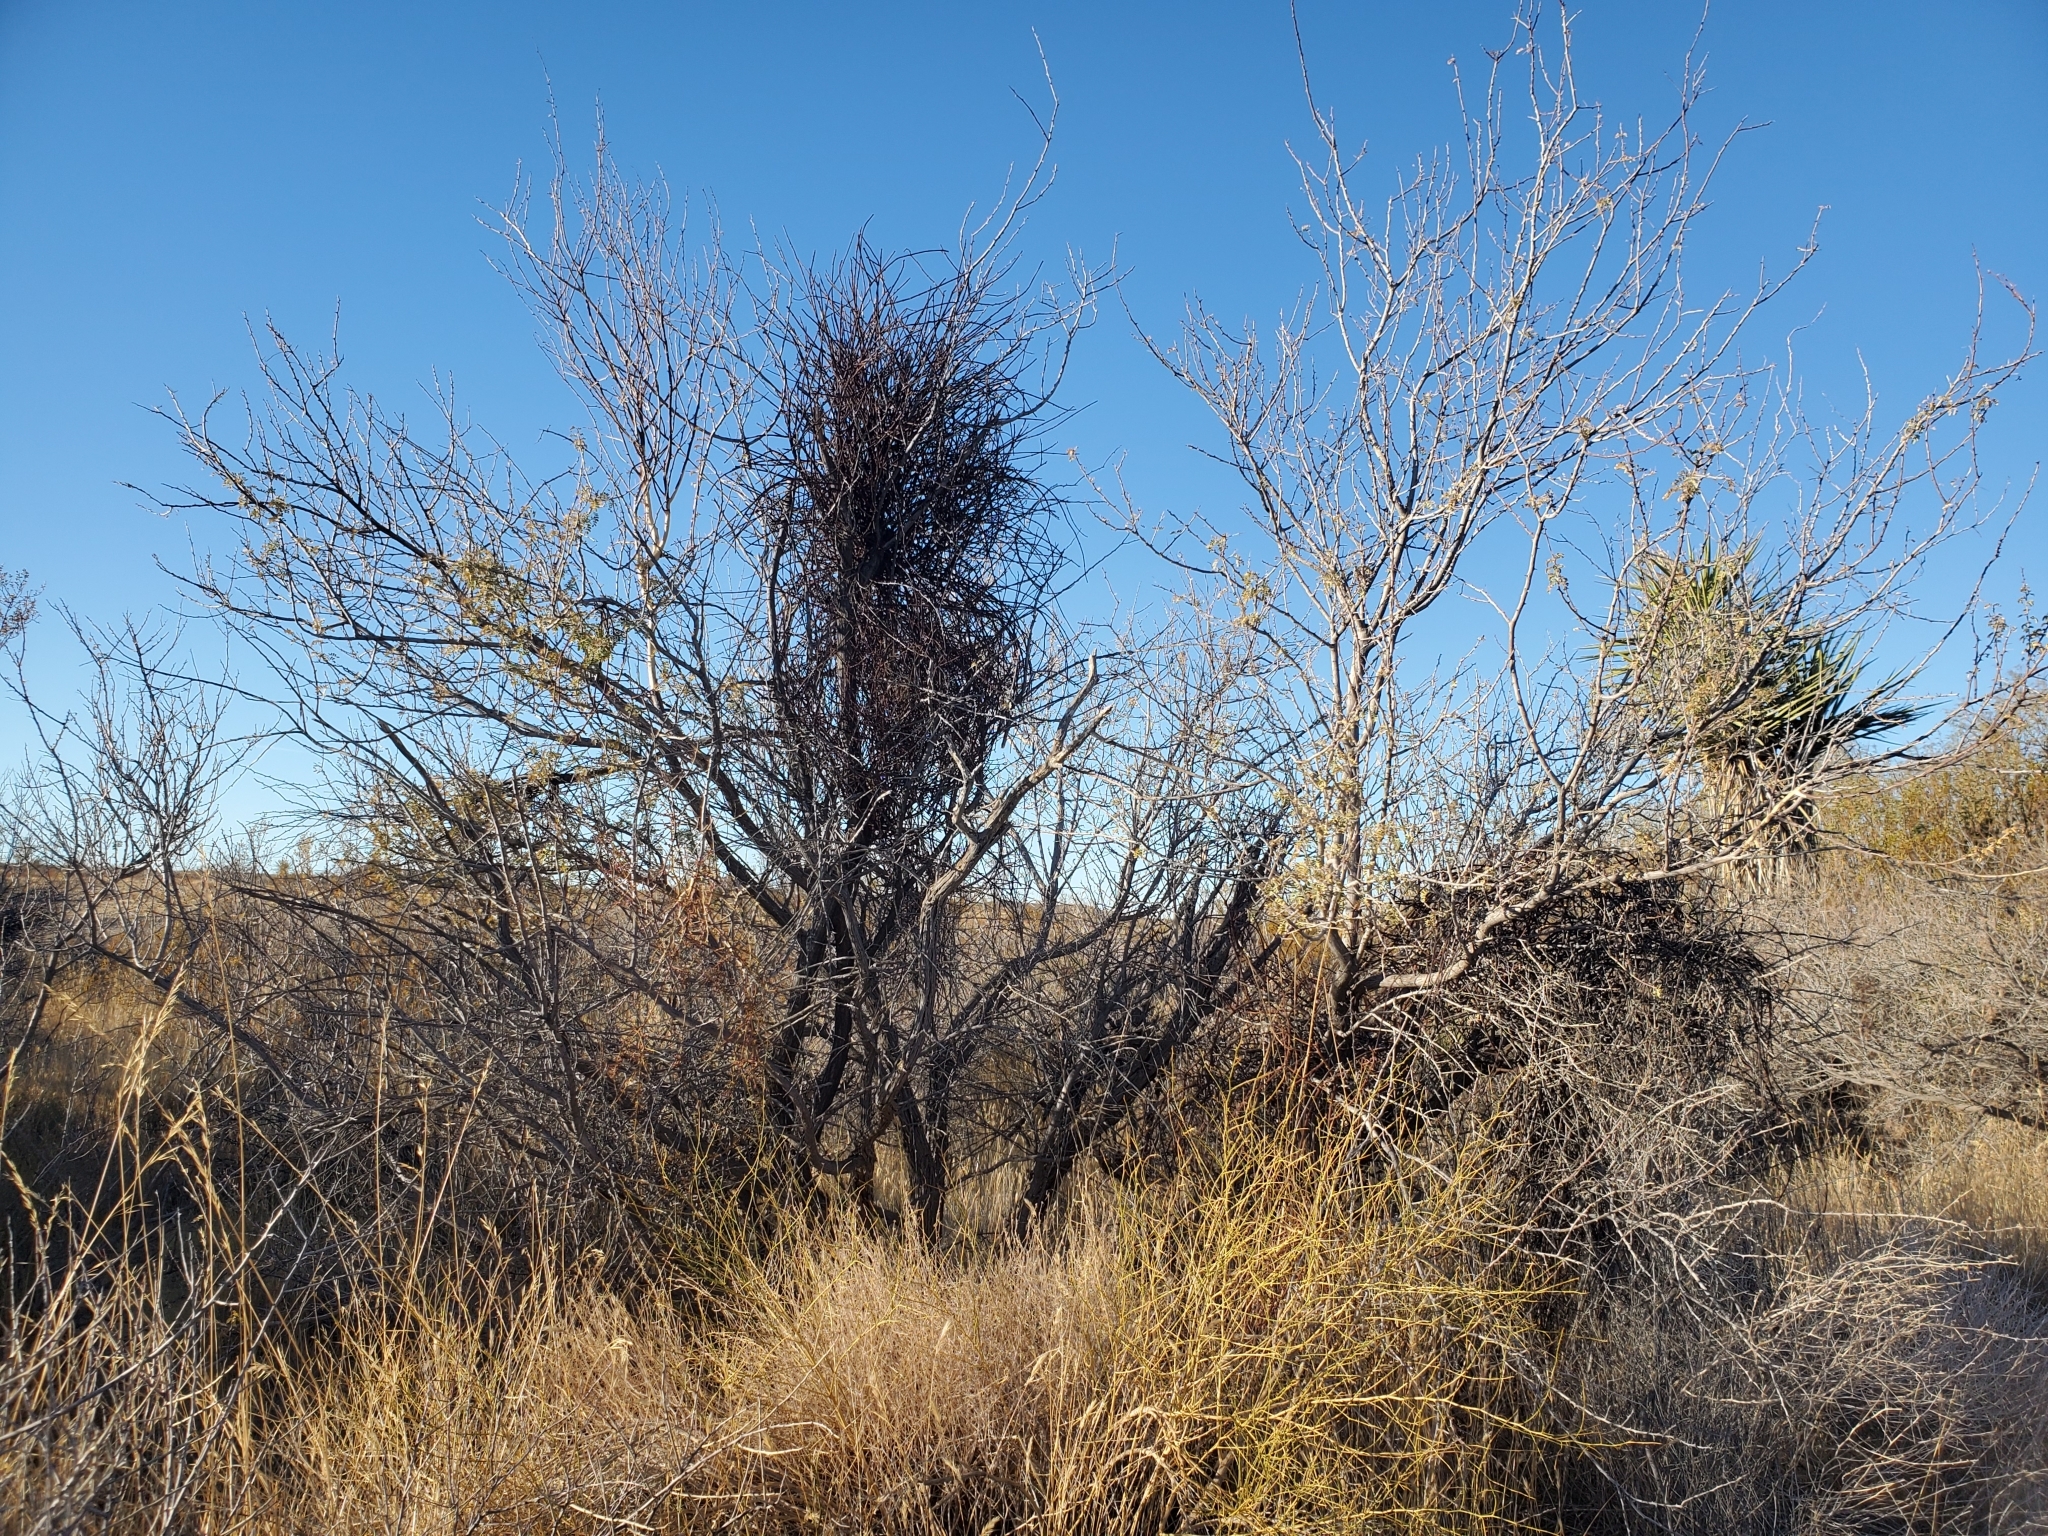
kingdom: Plantae
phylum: Tracheophyta
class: Magnoliopsida
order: Fabales
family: Fabaceae
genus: Senegalia
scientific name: Senegalia greggii
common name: Texas-mimosa
